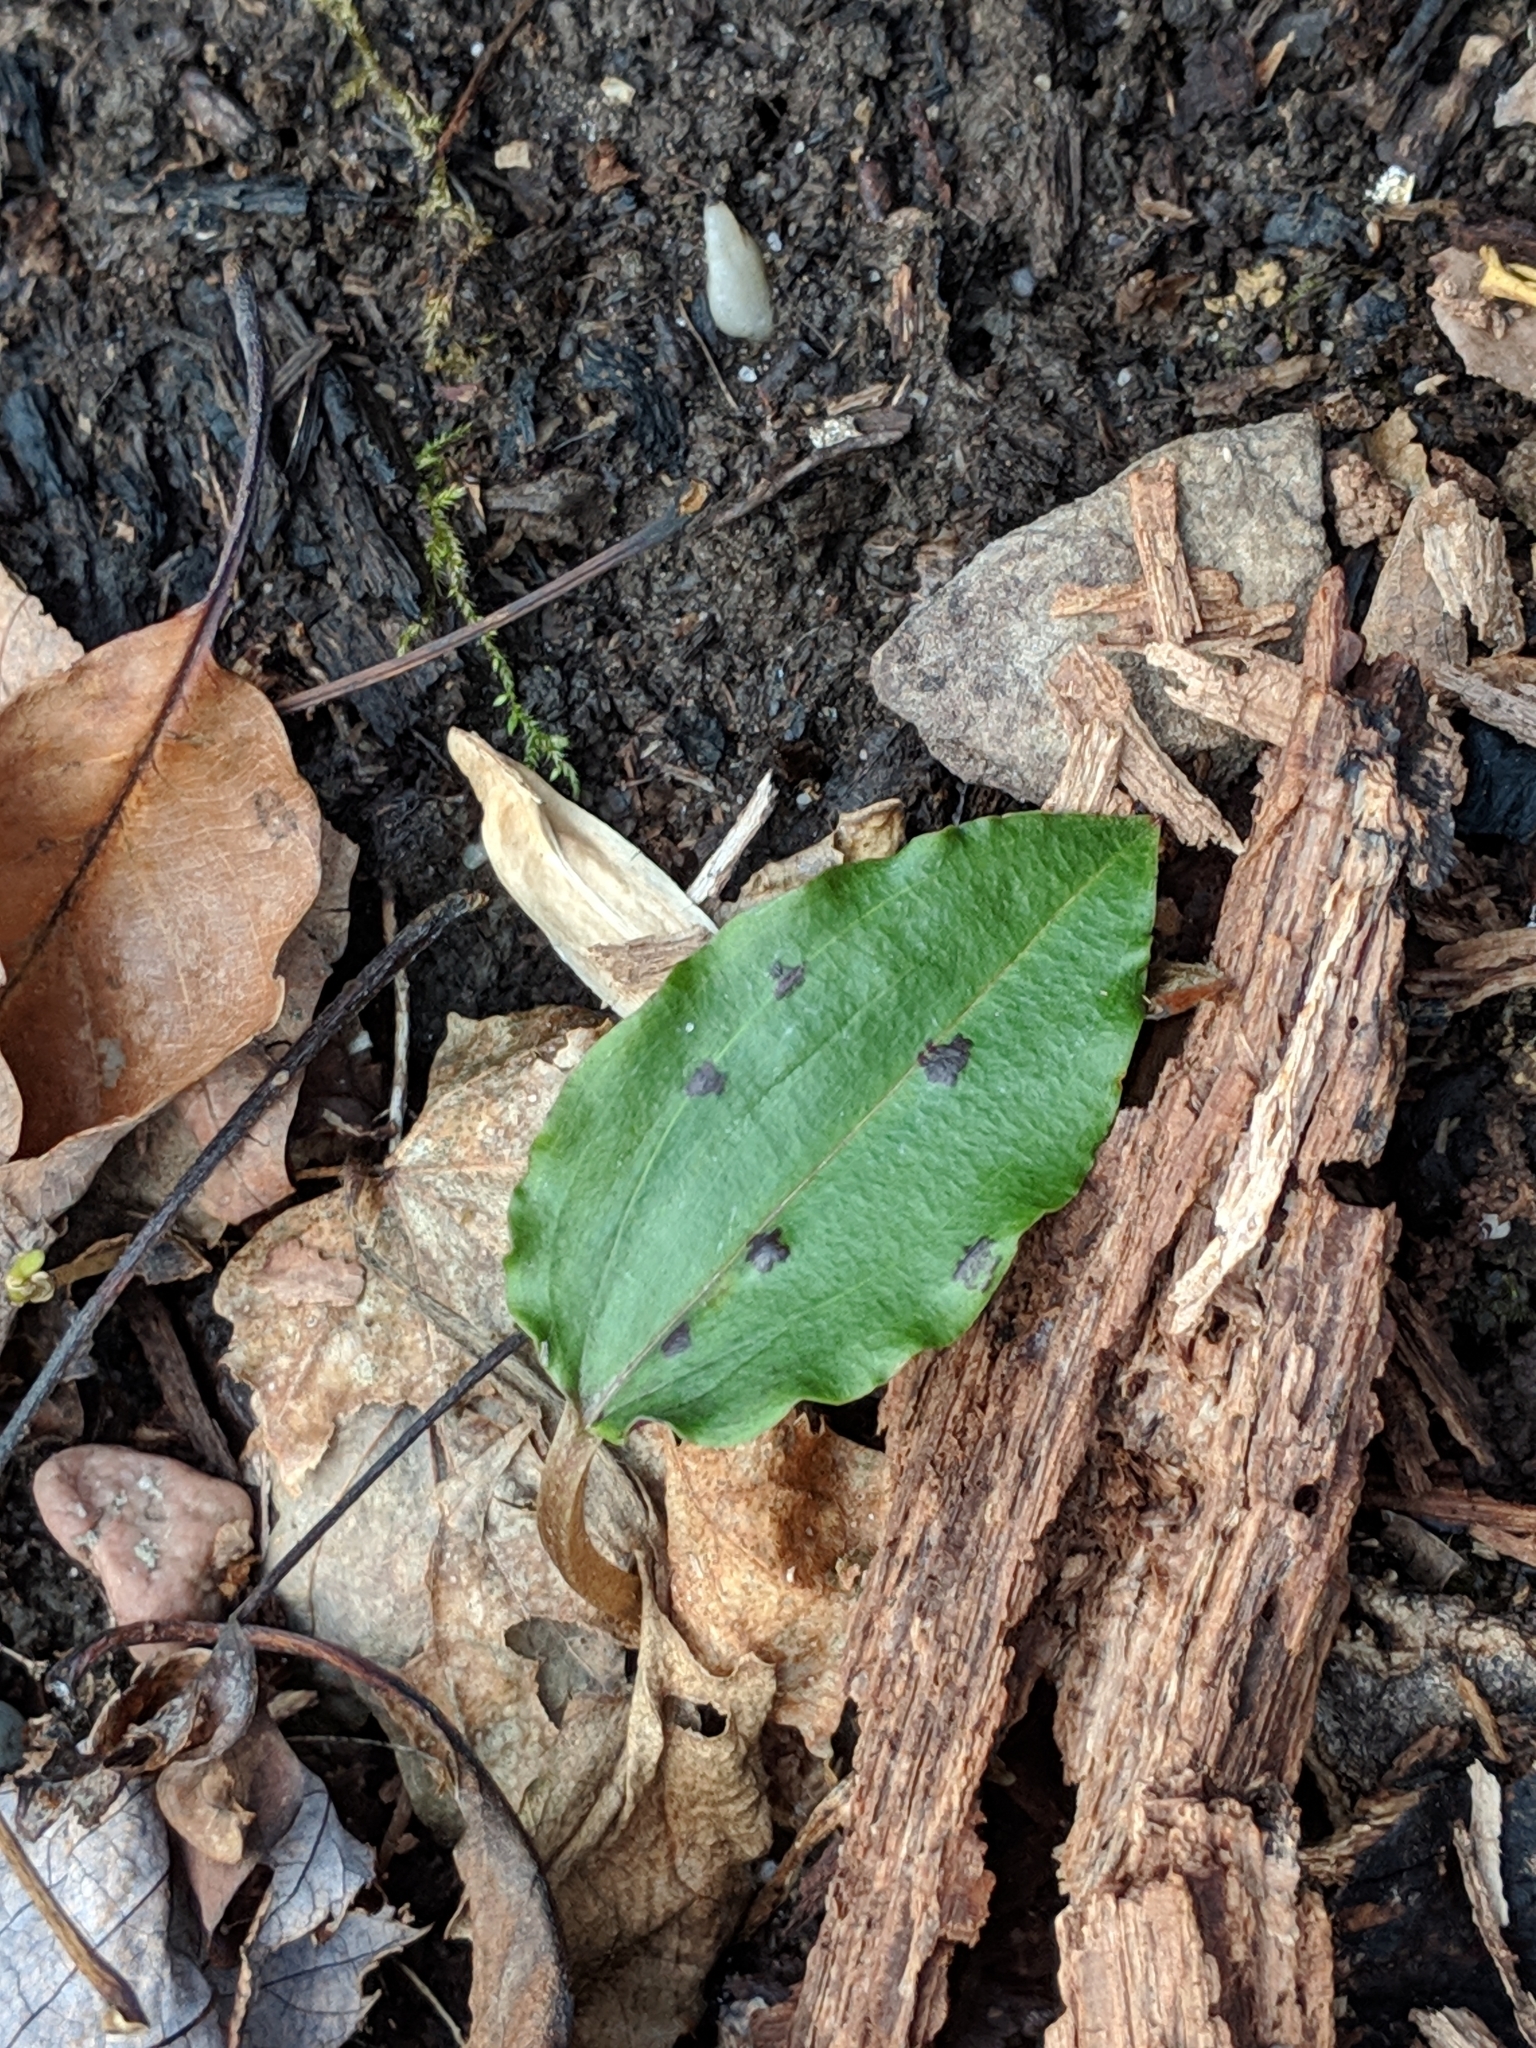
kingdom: Plantae
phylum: Tracheophyta
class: Liliopsida
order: Asparagales
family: Orchidaceae
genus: Tipularia
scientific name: Tipularia discolor
